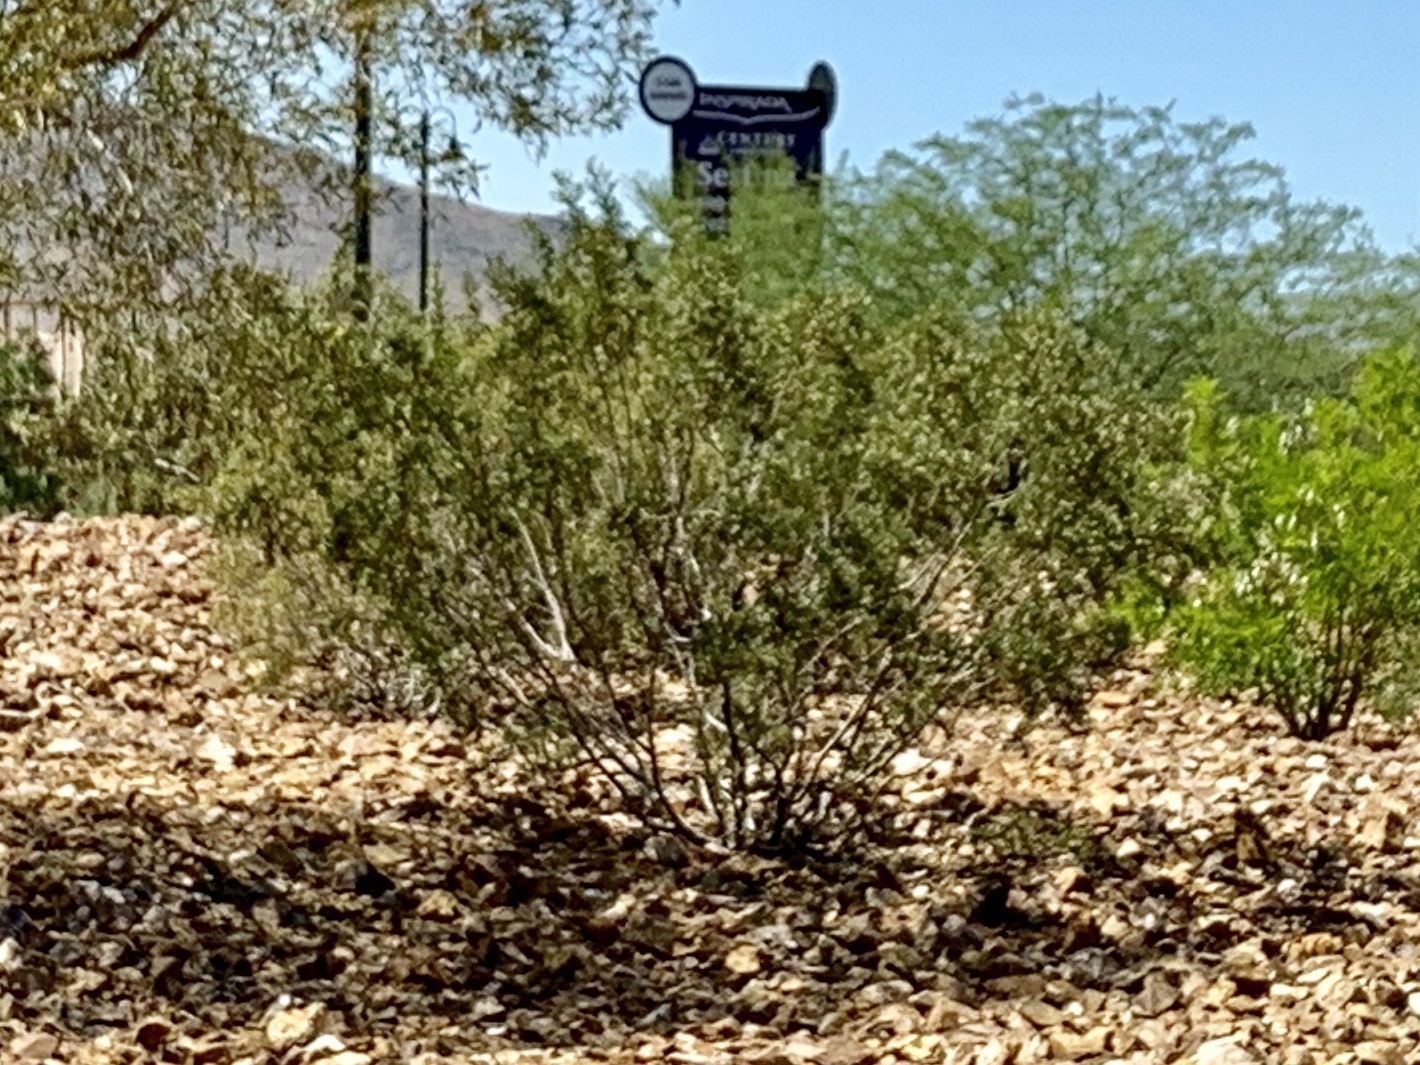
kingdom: Plantae
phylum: Tracheophyta
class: Magnoliopsida
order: Zygophyllales
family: Zygophyllaceae
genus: Larrea
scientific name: Larrea tridentata
